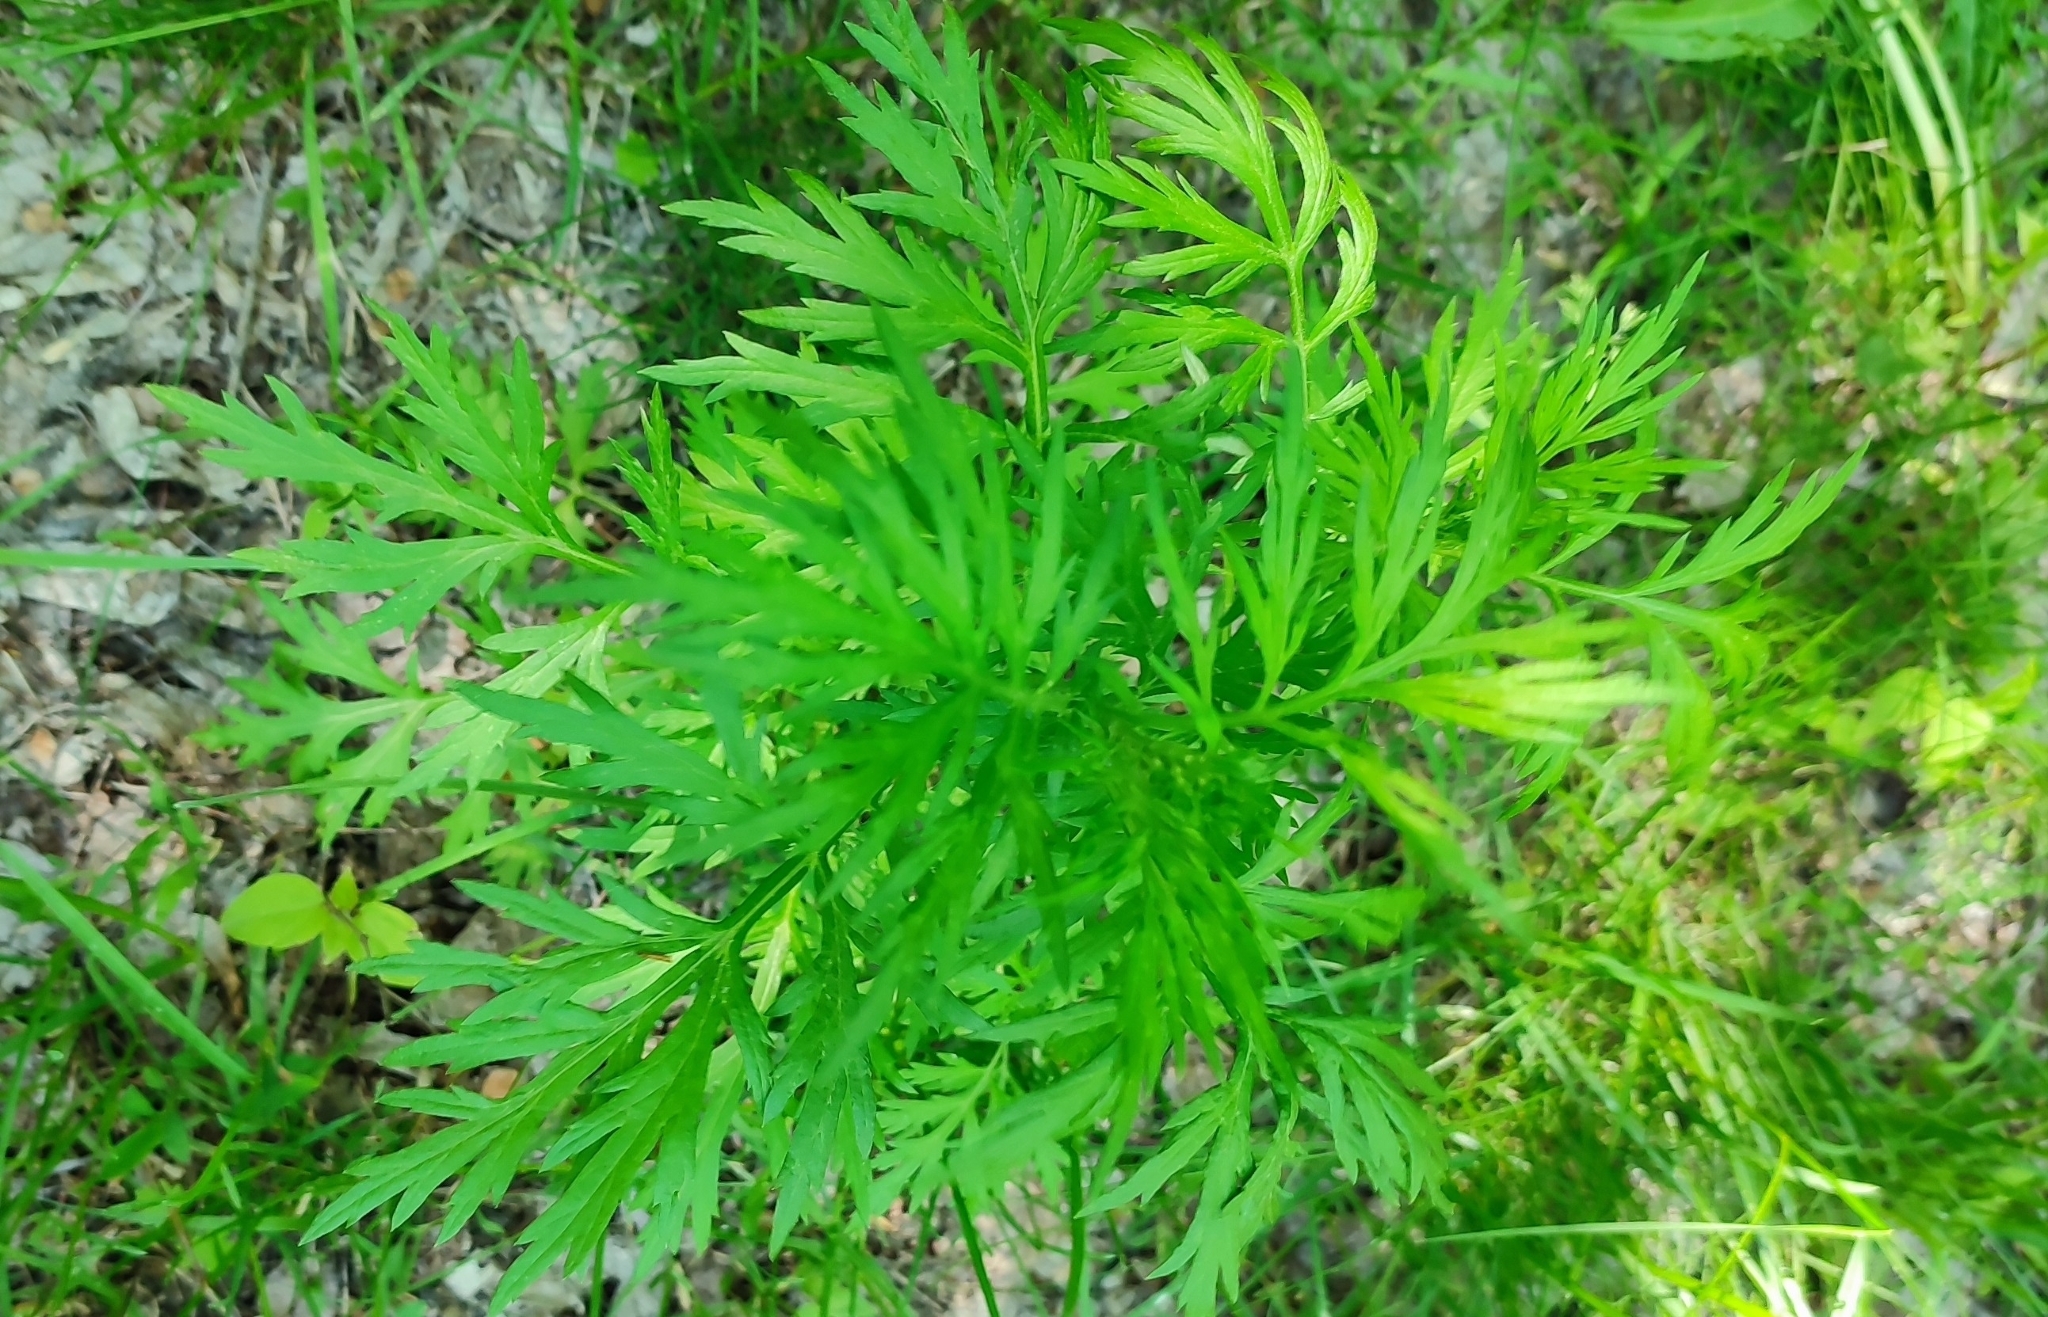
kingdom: Plantae
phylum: Tracheophyta
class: Magnoliopsida
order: Asterales
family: Asteraceae
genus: Artemisia
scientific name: Artemisia vulgaris
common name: Mugwort
